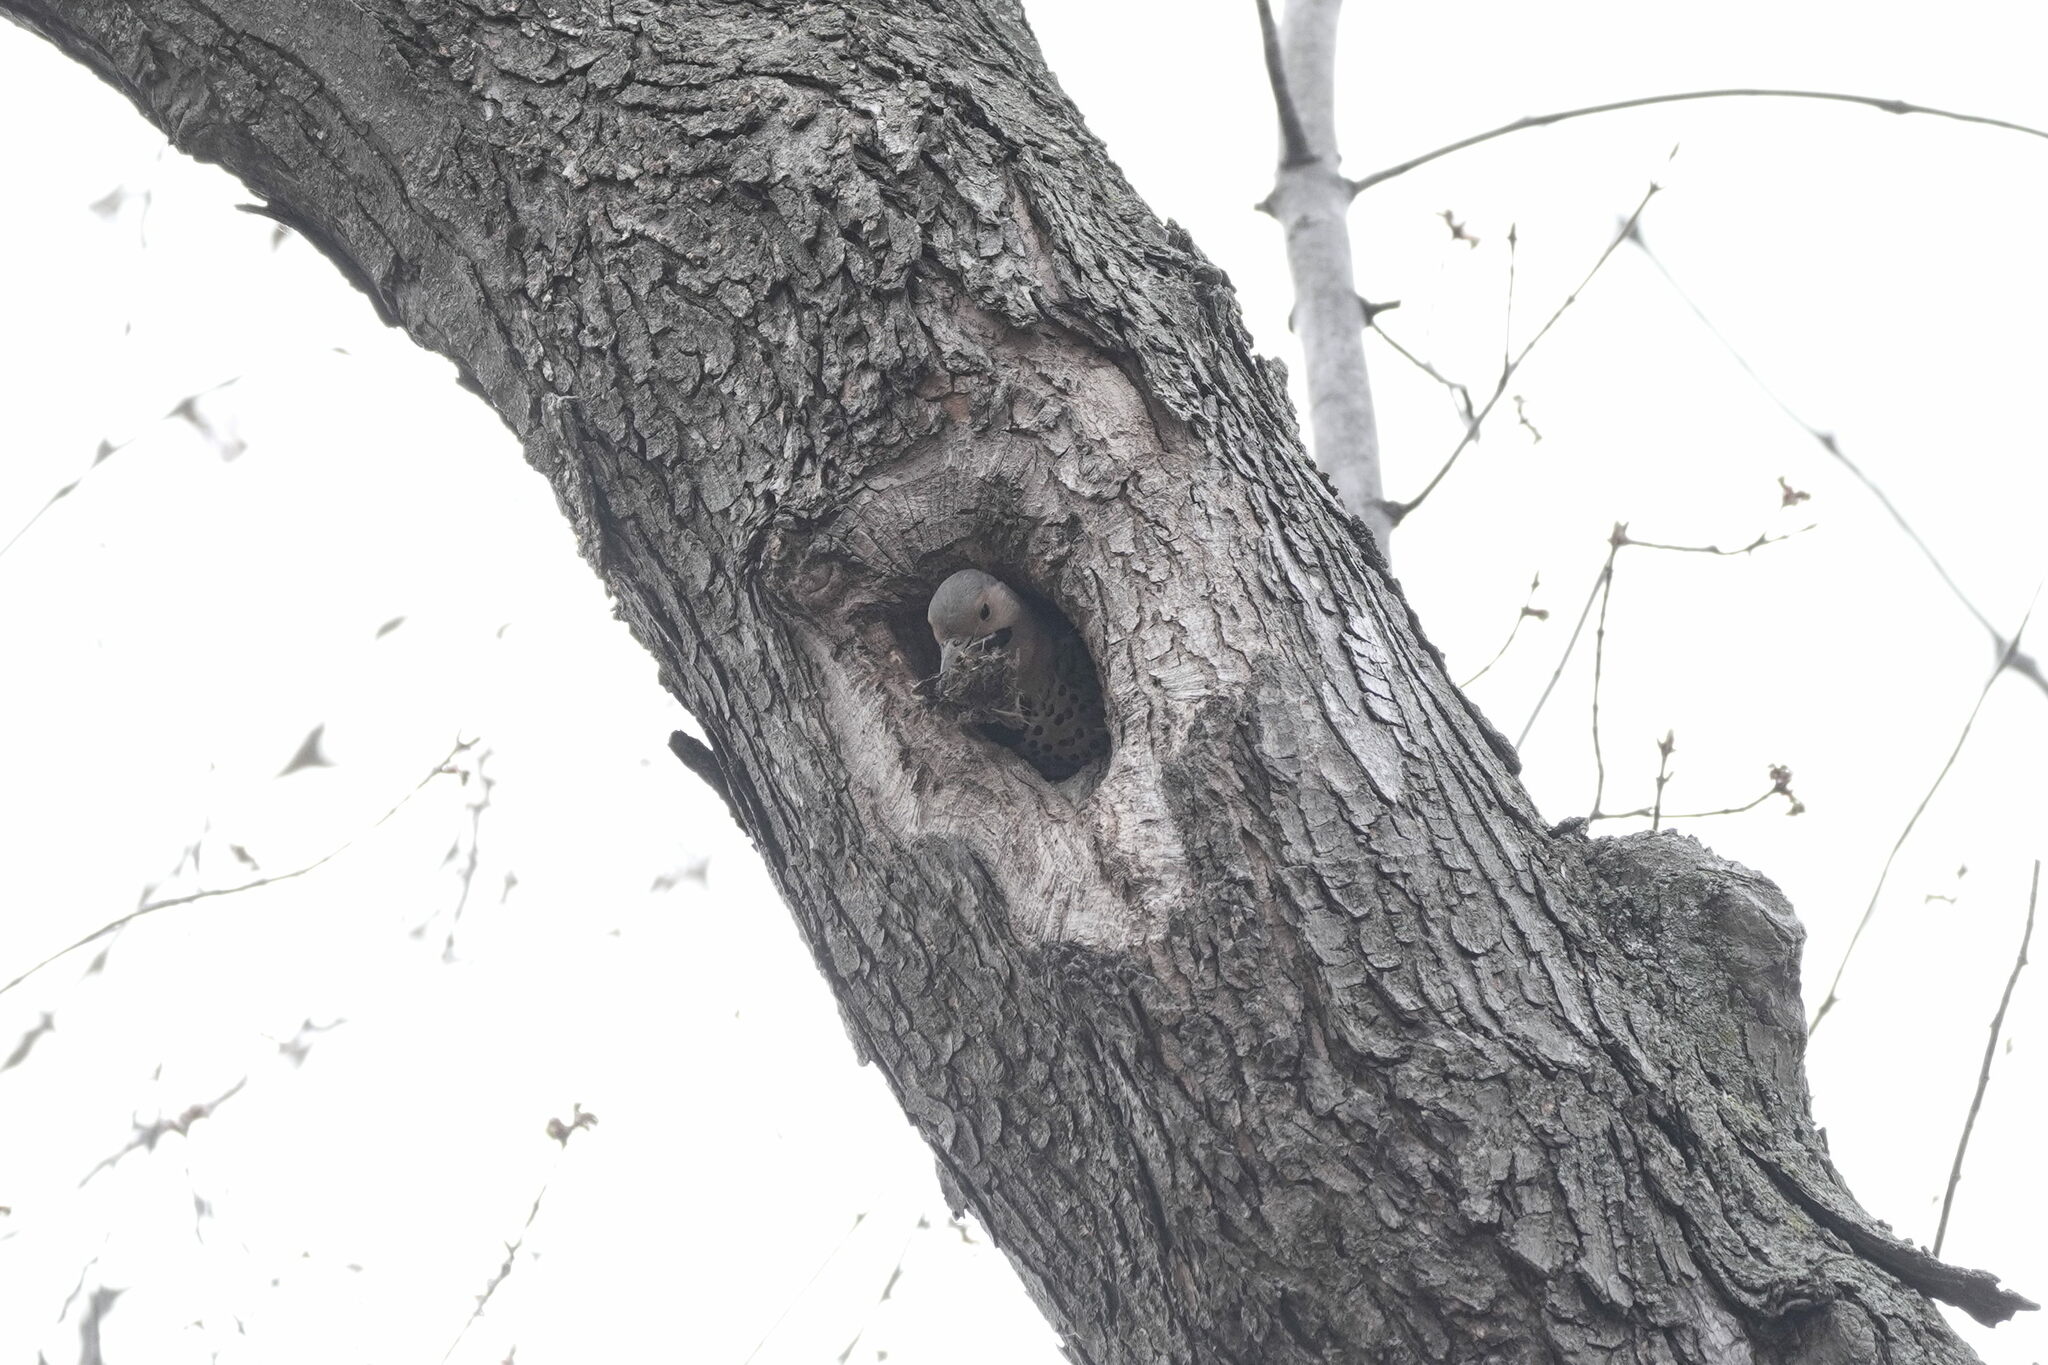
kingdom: Animalia
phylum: Chordata
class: Aves
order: Piciformes
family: Picidae
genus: Colaptes
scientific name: Colaptes auratus
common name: Northern flicker
